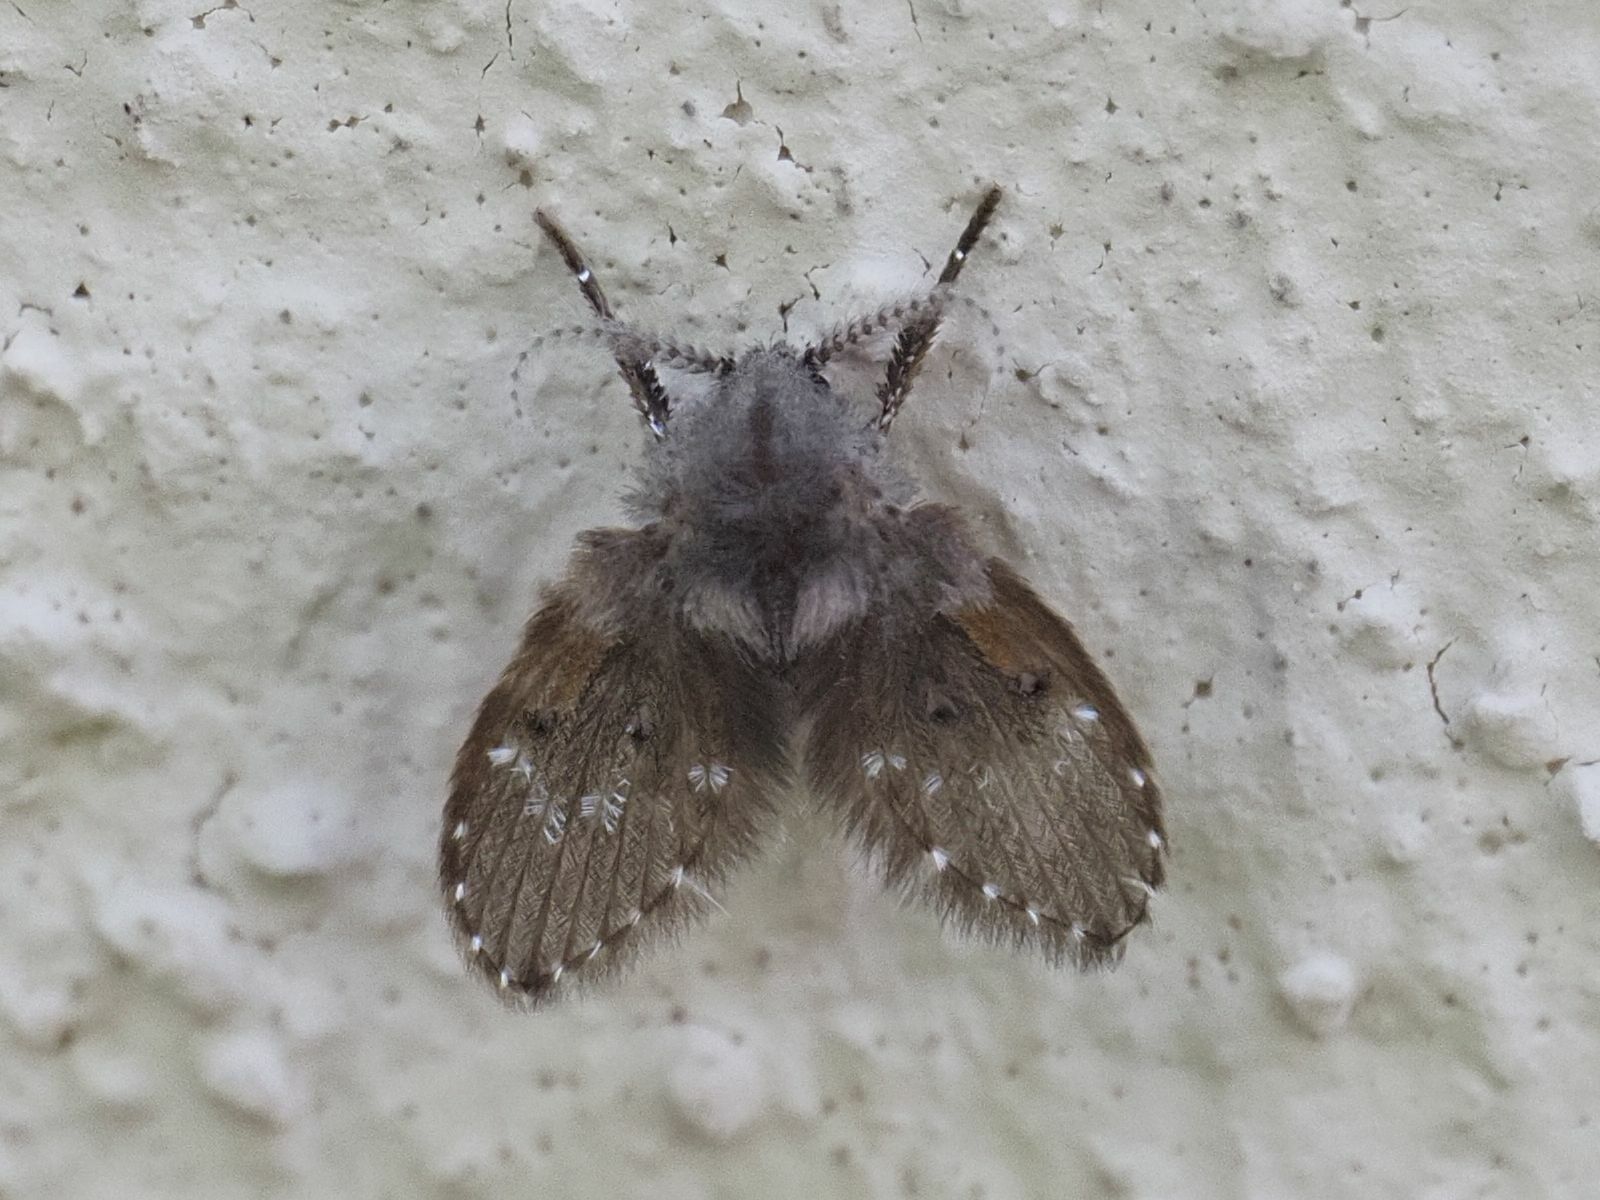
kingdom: Animalia
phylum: Arthropoda
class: Insecta
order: Diptera
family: Psychodidae
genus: Clogmia
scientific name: Clogmia albipunctatus
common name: White-spotted moth fly
